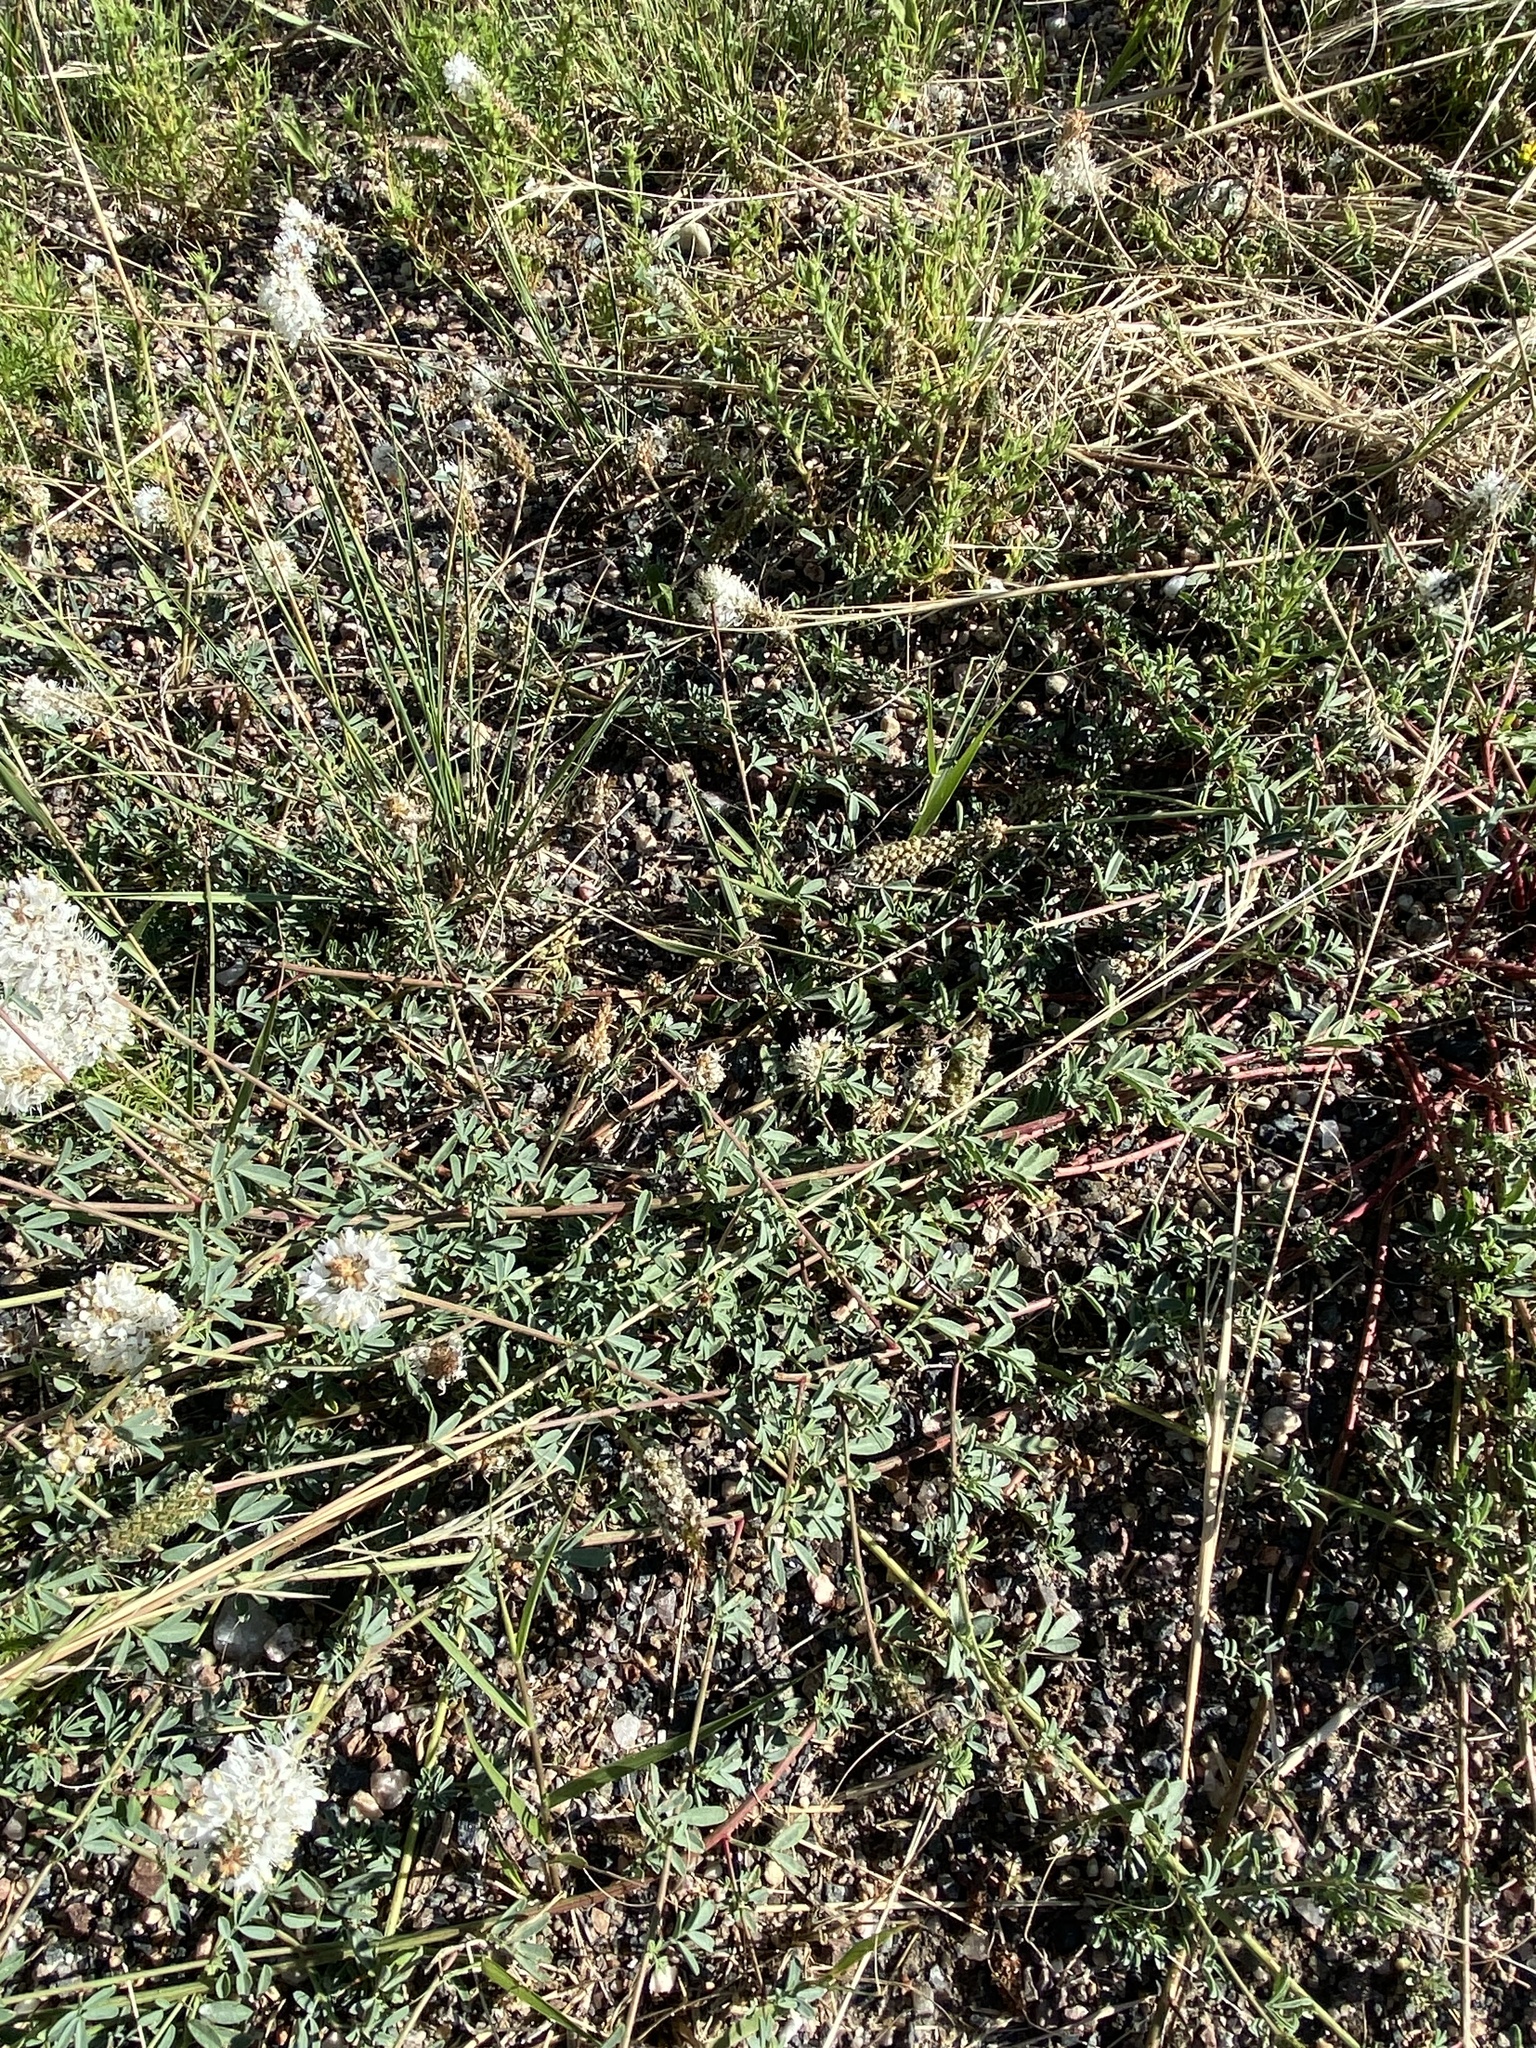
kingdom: Plantae
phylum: Tracheophyta
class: Magnoliopsida
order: Fabales
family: Fabaceae
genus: Dalea
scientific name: Dalea candida
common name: White prairie-clover
